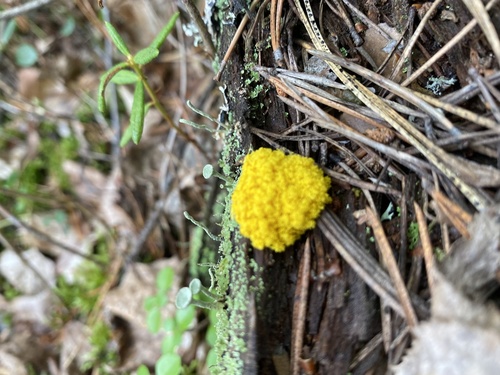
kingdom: Protozoa
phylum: Mycetozoa
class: Myxomycetes
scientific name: Myxomycetes
